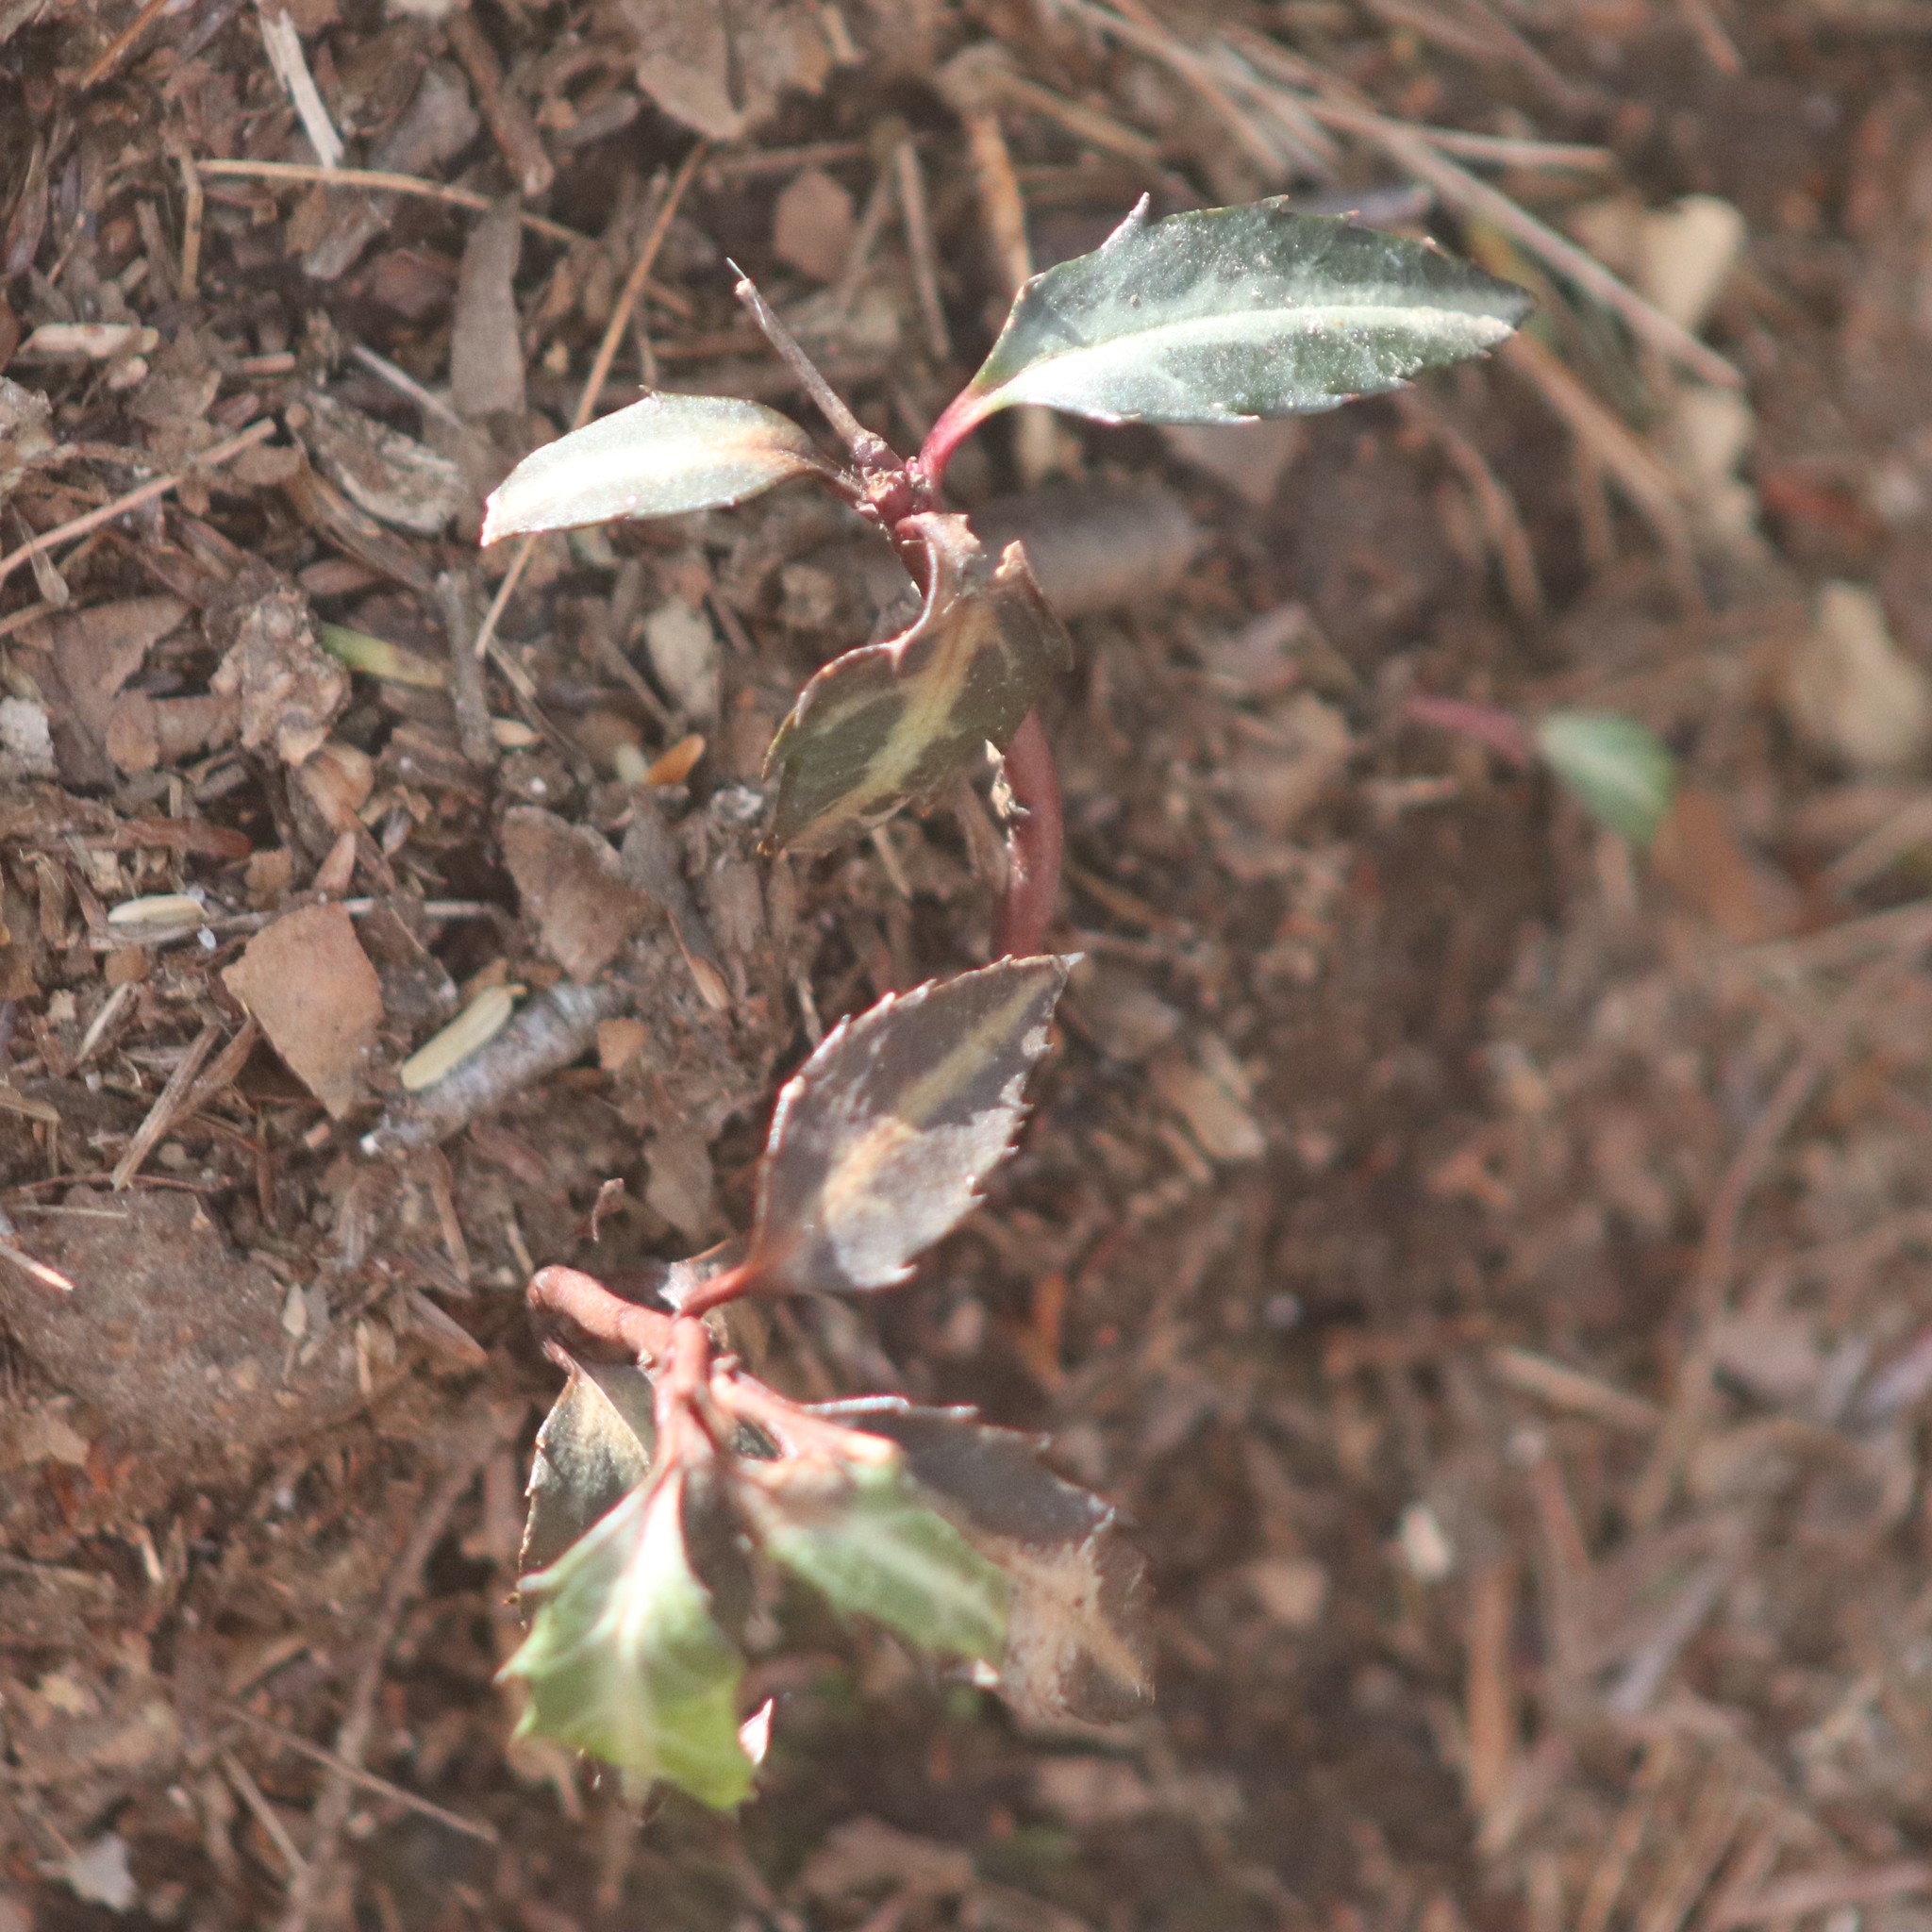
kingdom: Plantae
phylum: Tracheophyta
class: Magnoliopsida
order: Ericales
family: Ericaceae
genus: Chimaphila
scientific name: Chimaphila maculata
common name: Spotted pipsissewa
